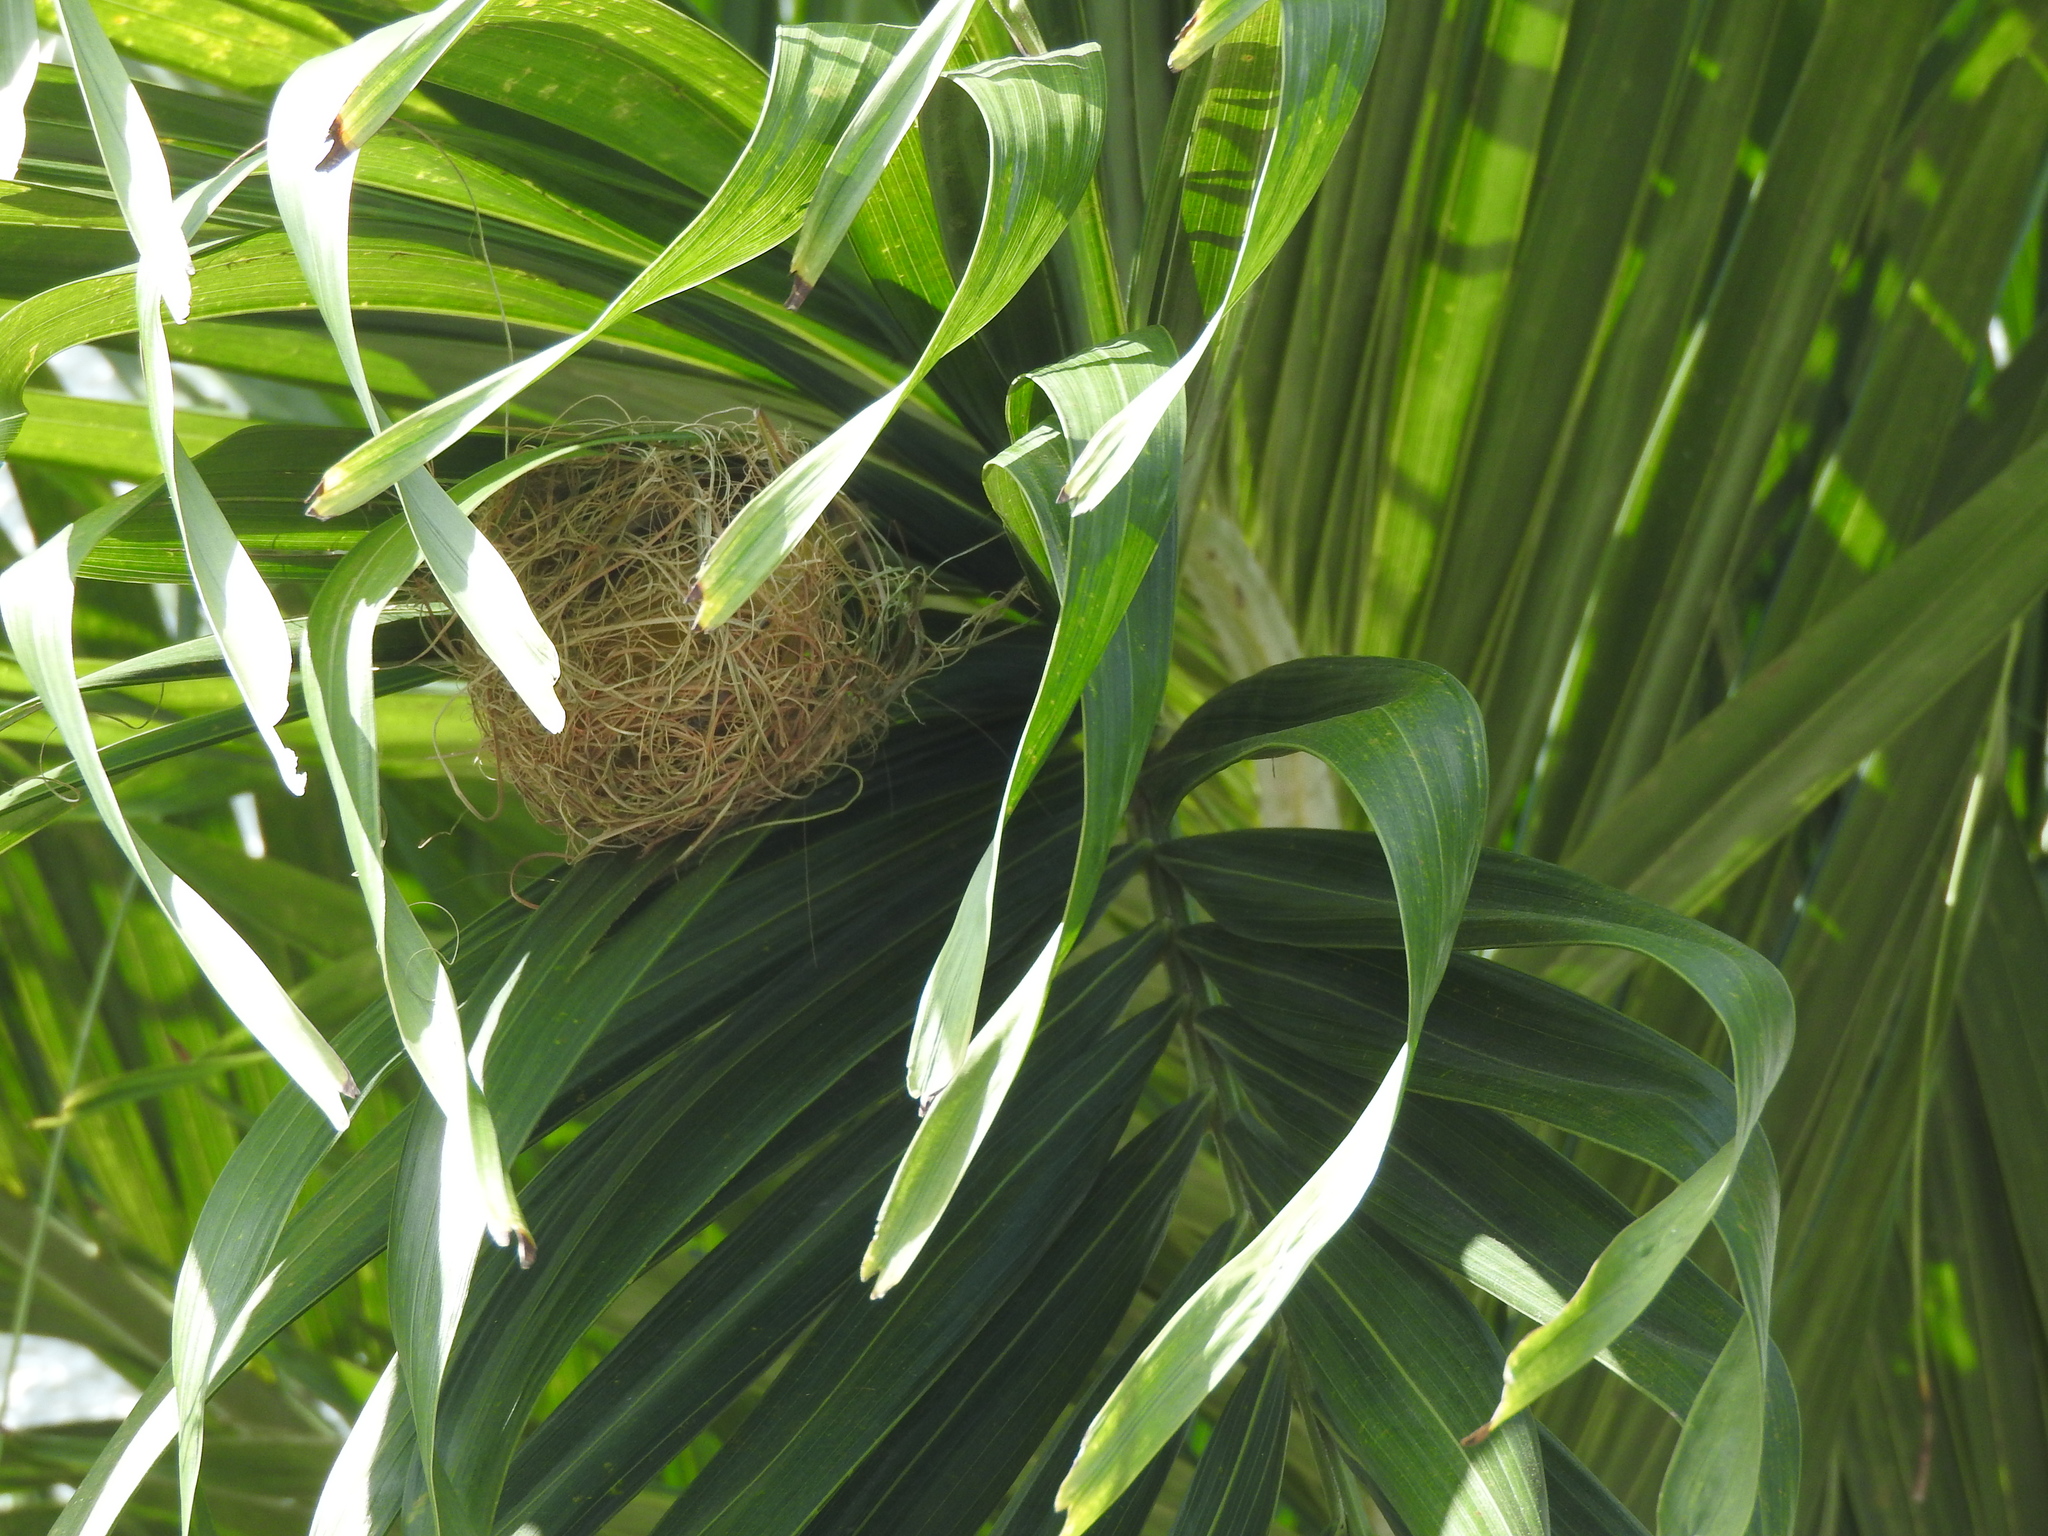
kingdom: Animalia
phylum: Chordata
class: Aves
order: Passeriformes
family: Icteridae
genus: Icterus
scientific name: Icterus cucullatus
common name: Hooded oriole
